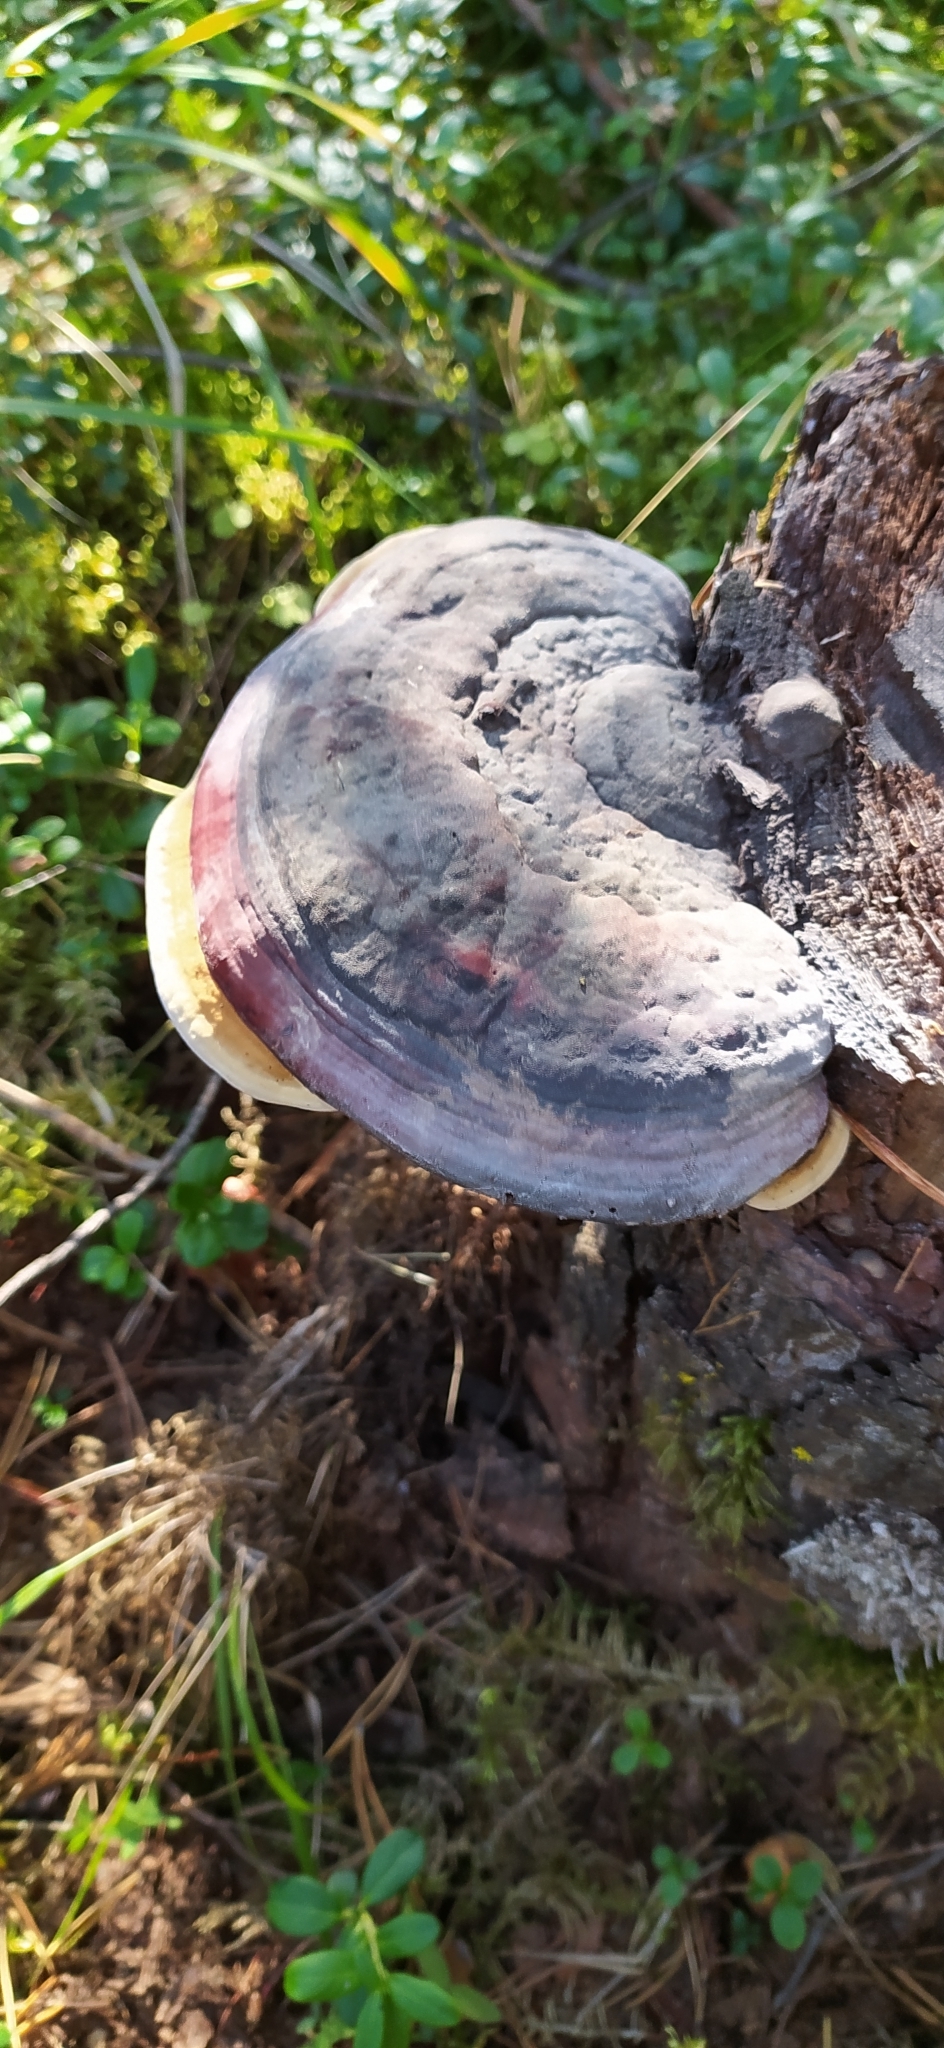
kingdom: Fungi
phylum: Basidiomycota
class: Agaricomycetes
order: Polyporales
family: Fomitopsidaceae
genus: Fomitopsis
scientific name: Fomitopsis pinicola
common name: Red-belted bracket
